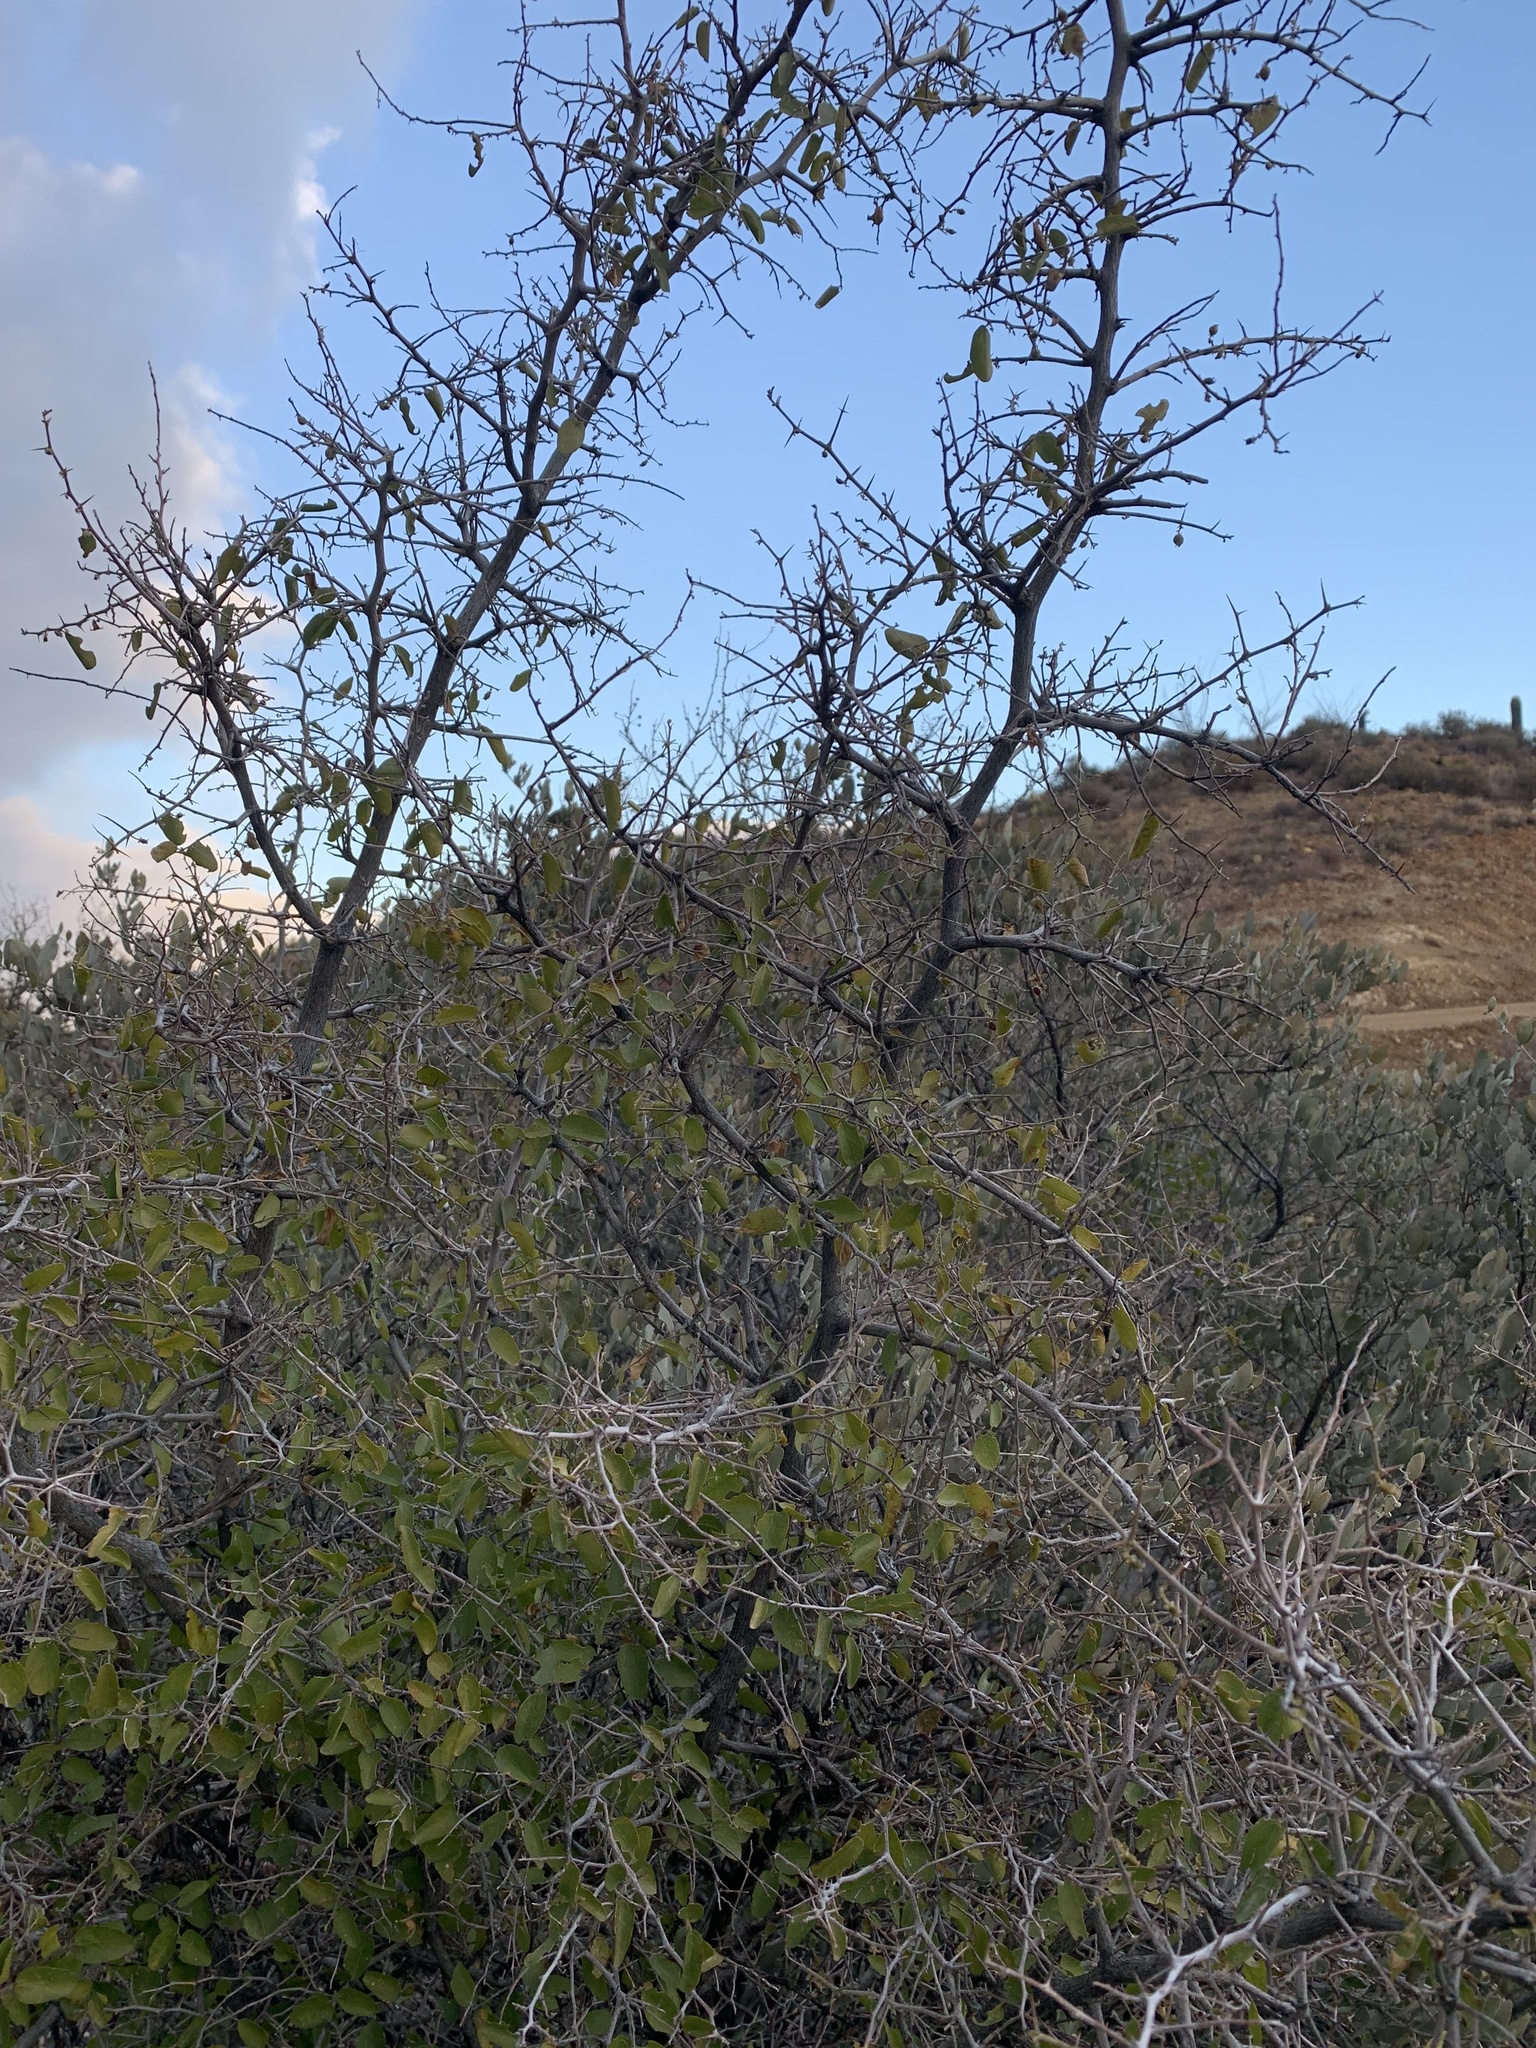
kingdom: Plantae
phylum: Tracheophyta
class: Magnoliopsida
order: Rosales
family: Cannabaceae
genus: Celtis
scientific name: Celtis pallida
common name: Desert hackberry
